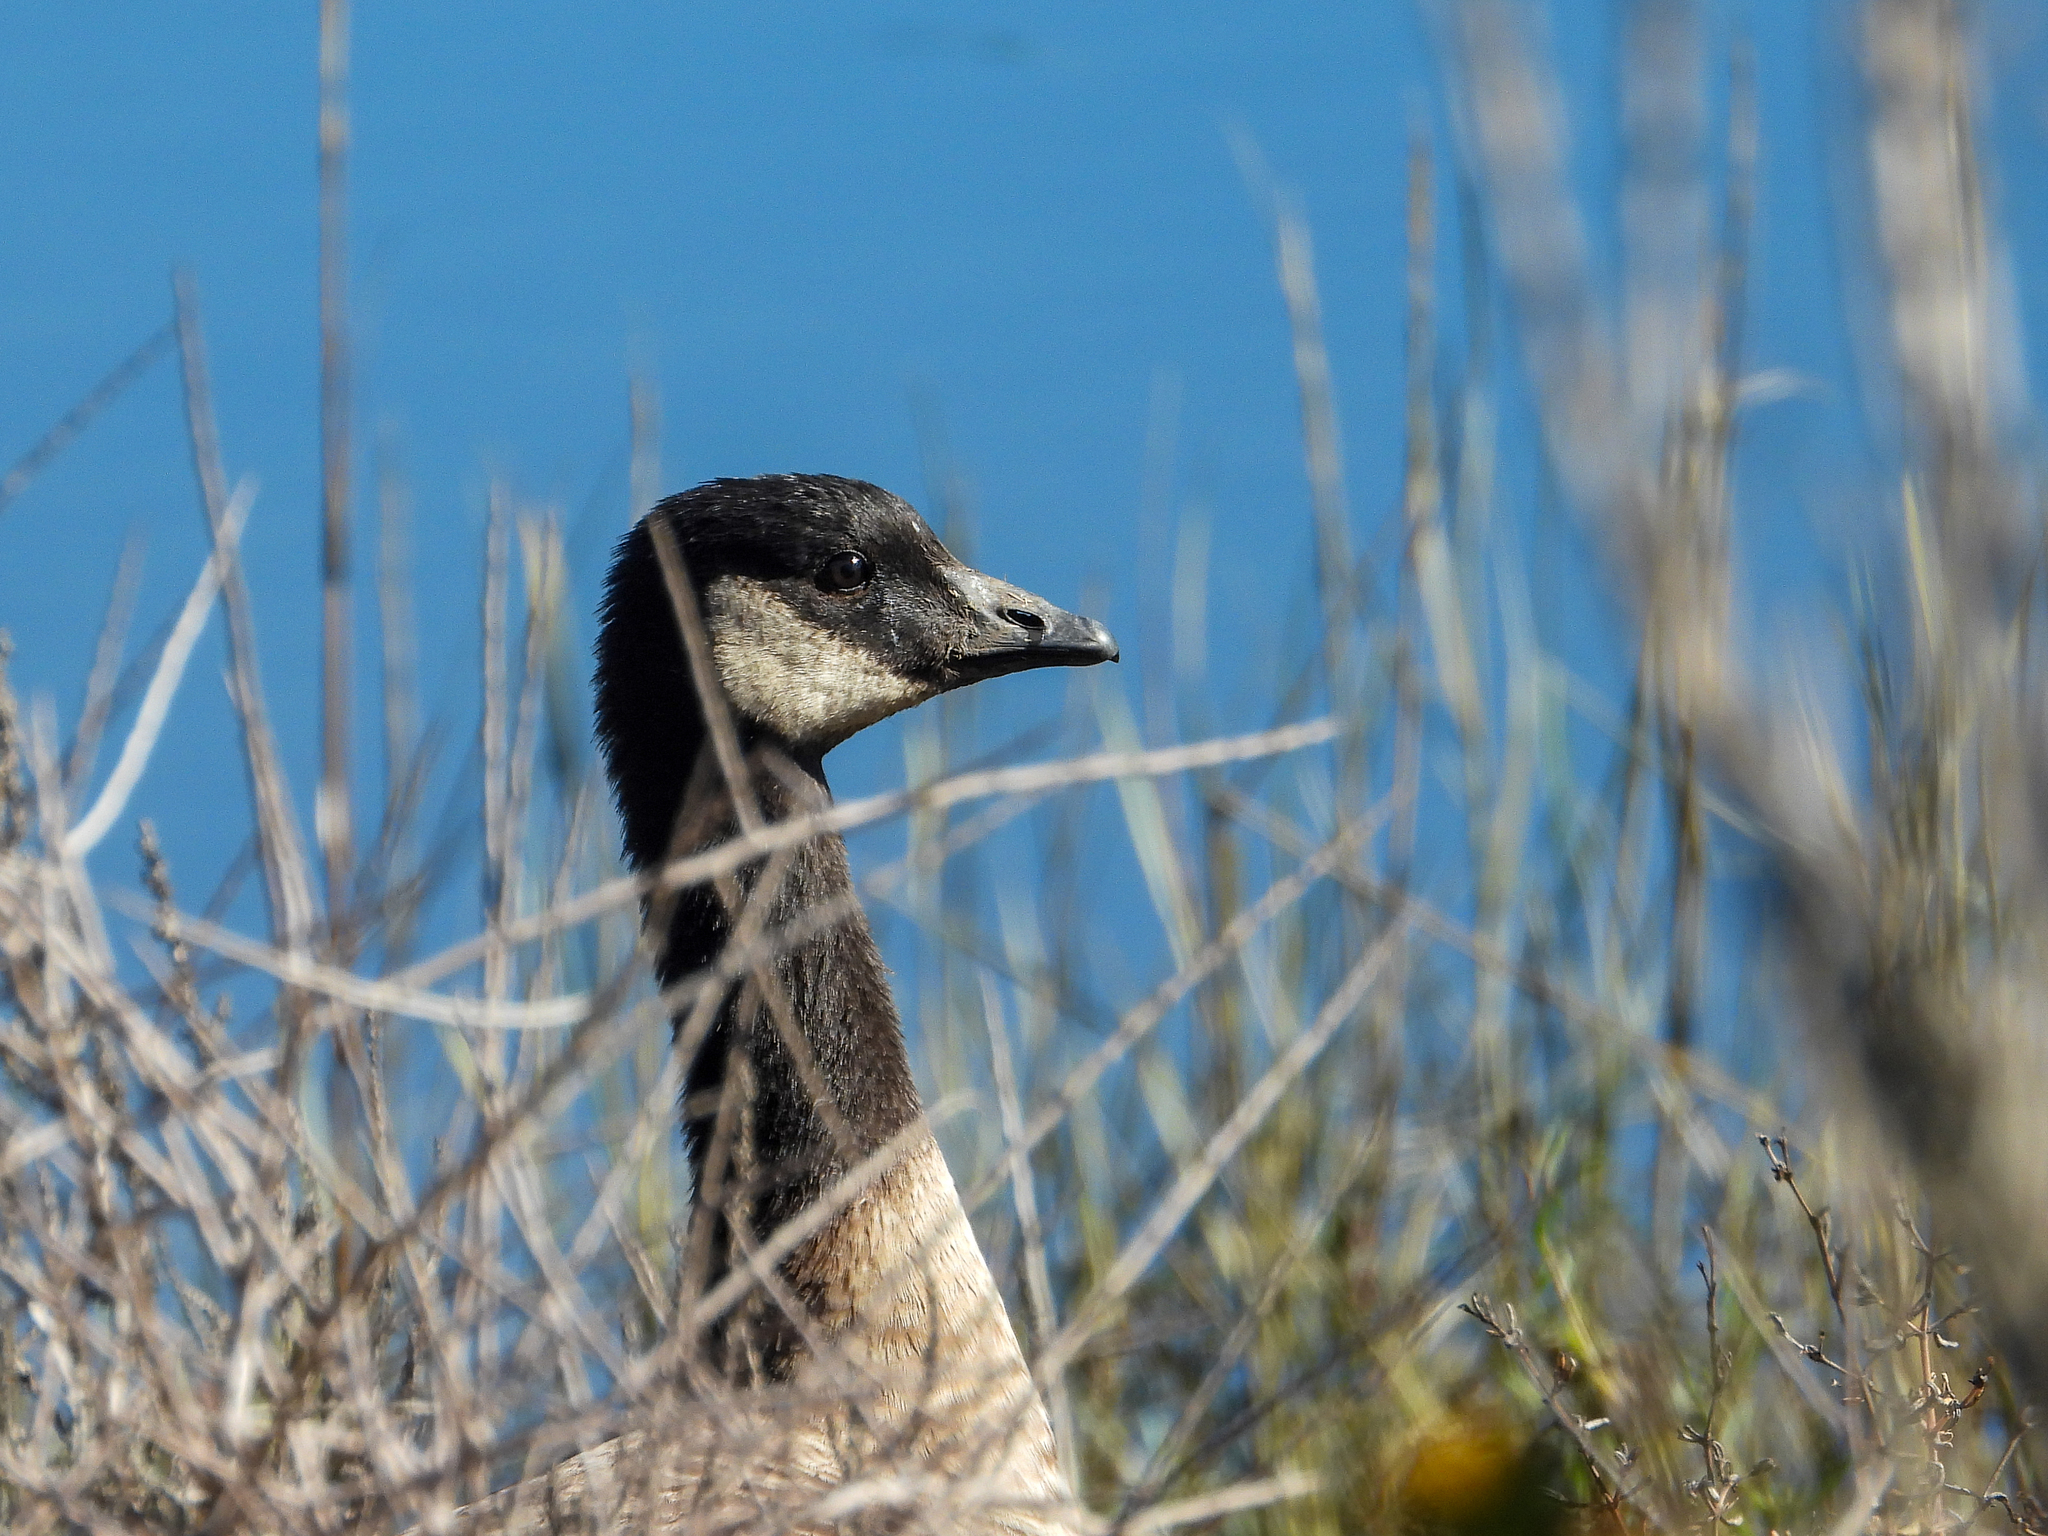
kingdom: Animalia
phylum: Chordata
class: Aves
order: Anseriformes
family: Anatidae
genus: Branta
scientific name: Branta hutchinsii
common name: Cackling goose
